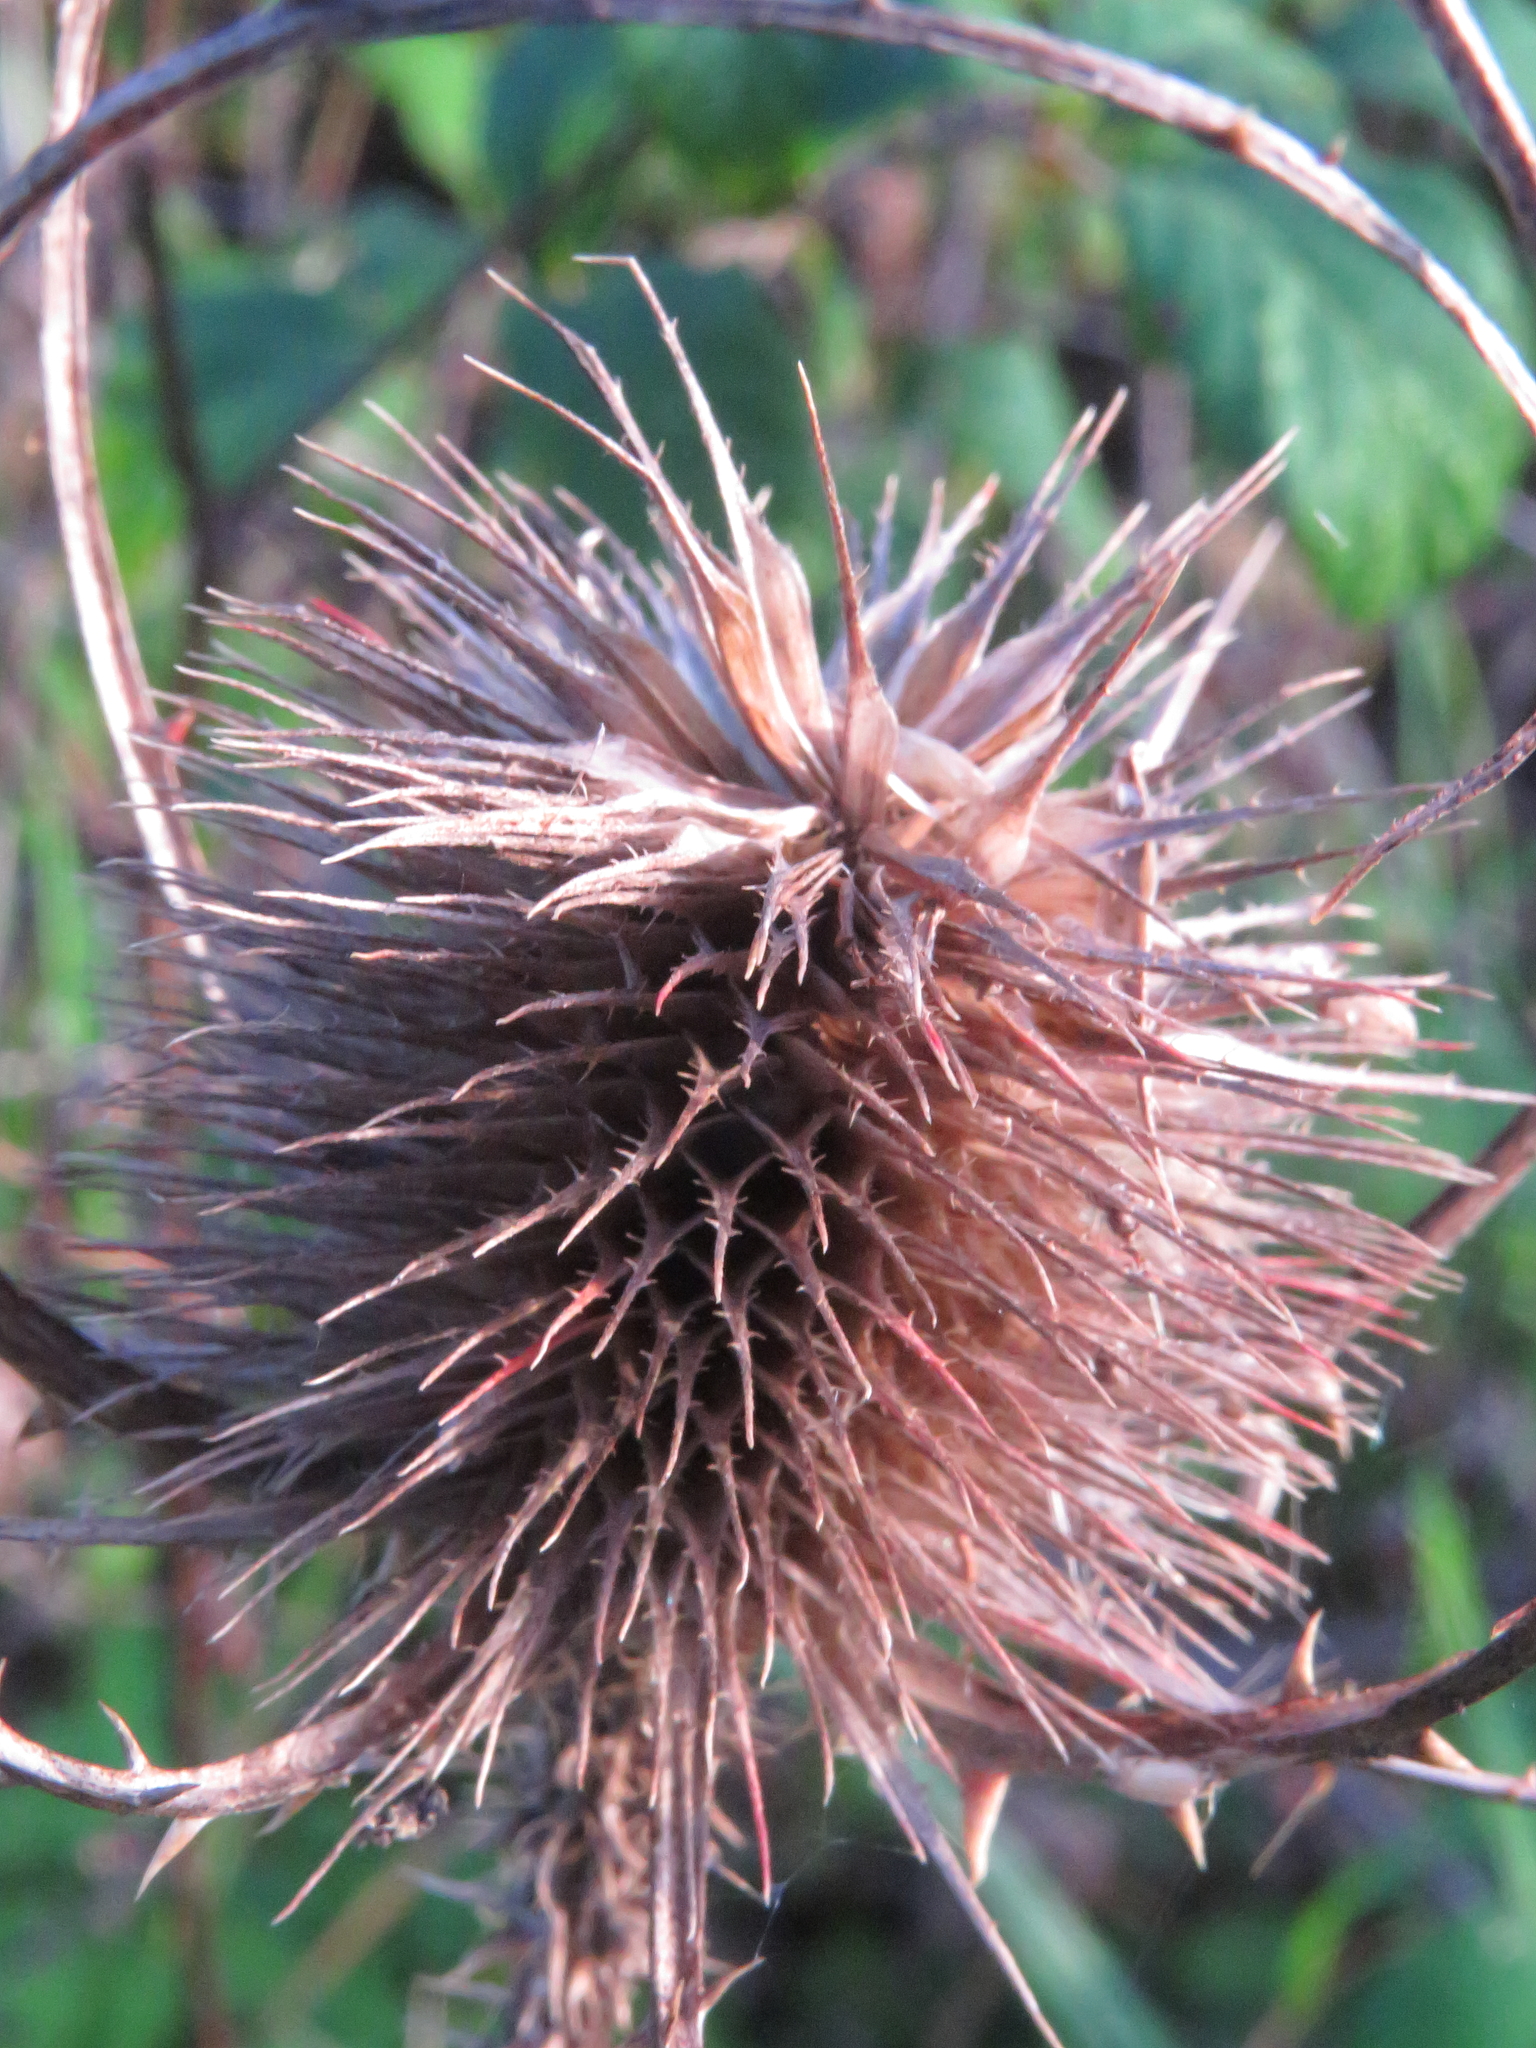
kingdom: Plantae
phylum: Tracheophyta
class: Magnoliopsida
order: Dipsacales
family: Caprifoliaceae
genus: Dipsacus
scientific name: Dipsacus fullonum
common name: Teasel
